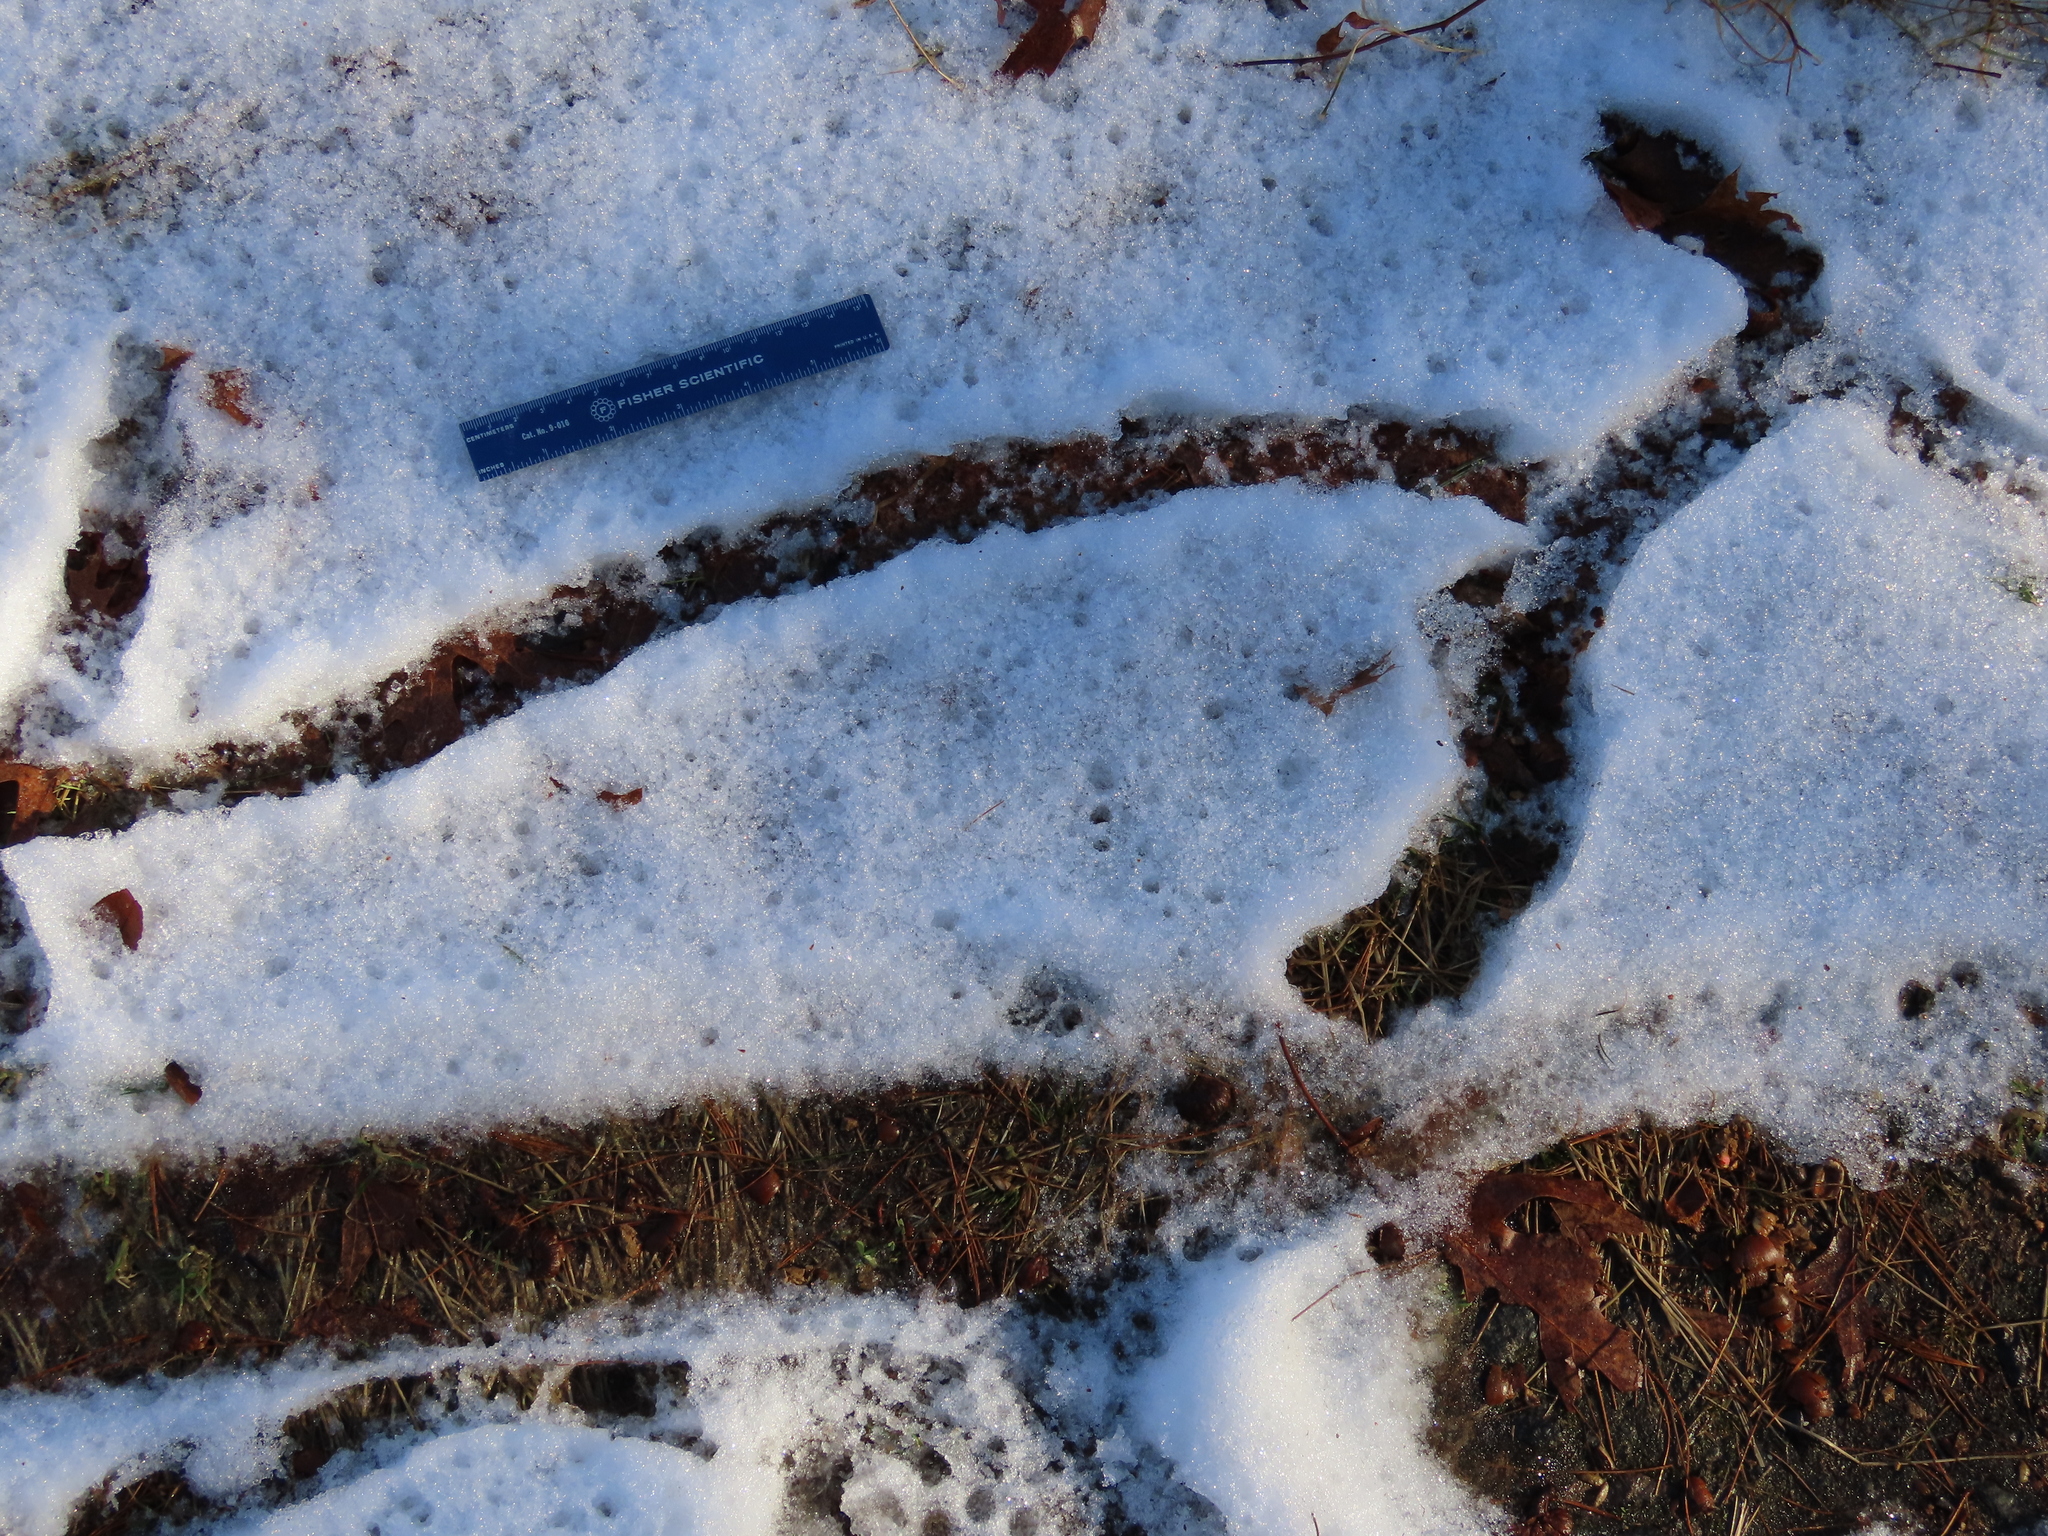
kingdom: Animalia
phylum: Chordata
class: Mammalia
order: Rodentia
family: Cricetidae
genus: Microtus
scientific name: Microtus pennsylvanicus
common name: Meadow vole
